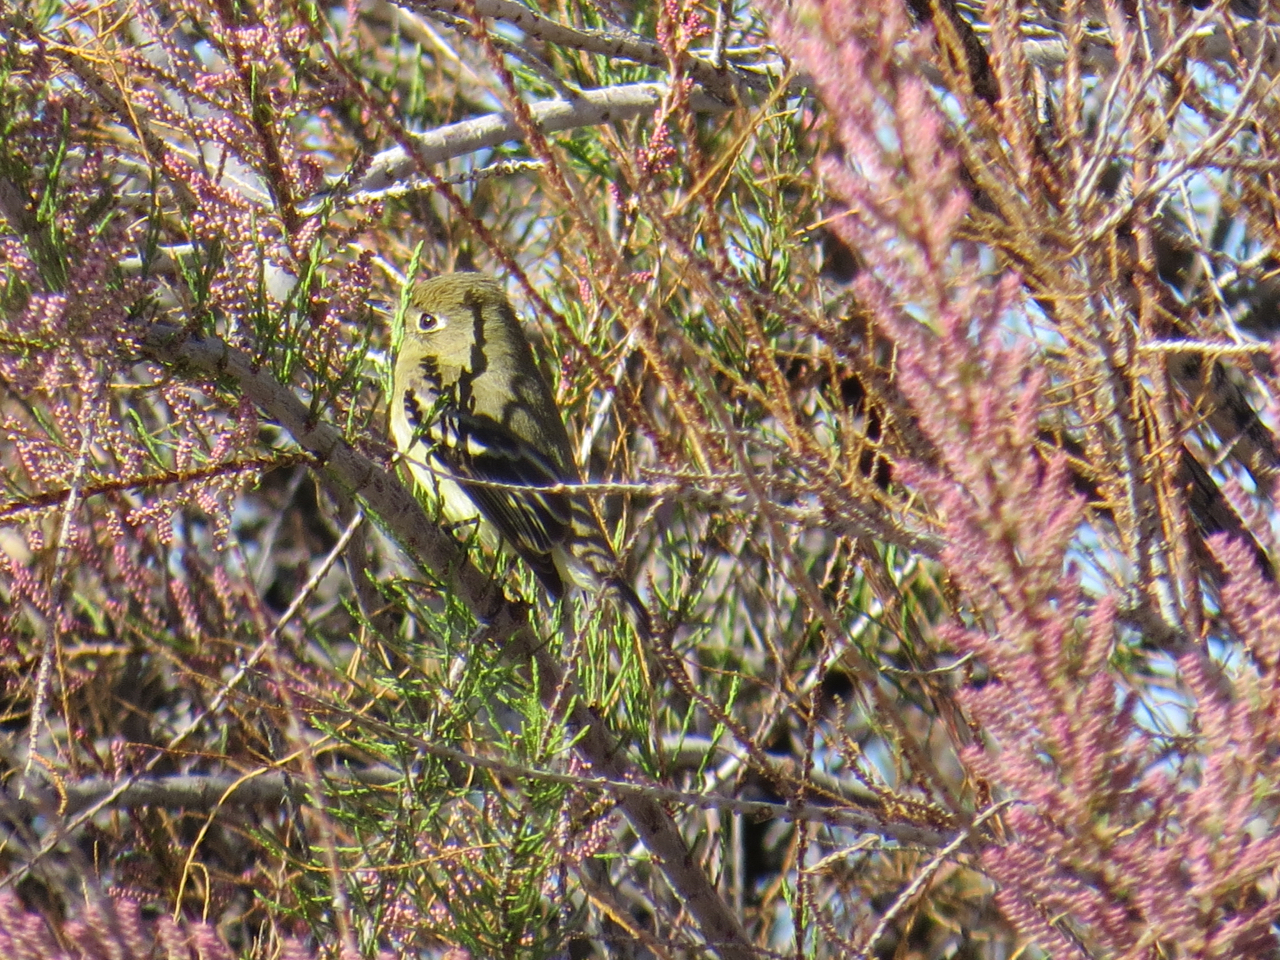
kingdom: Animalia
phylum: Chordata
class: Aves
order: Passeriformes
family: Tyrannidae
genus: Empidonax
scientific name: Empidonax difficilis
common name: Pacific-slope flycatcher
